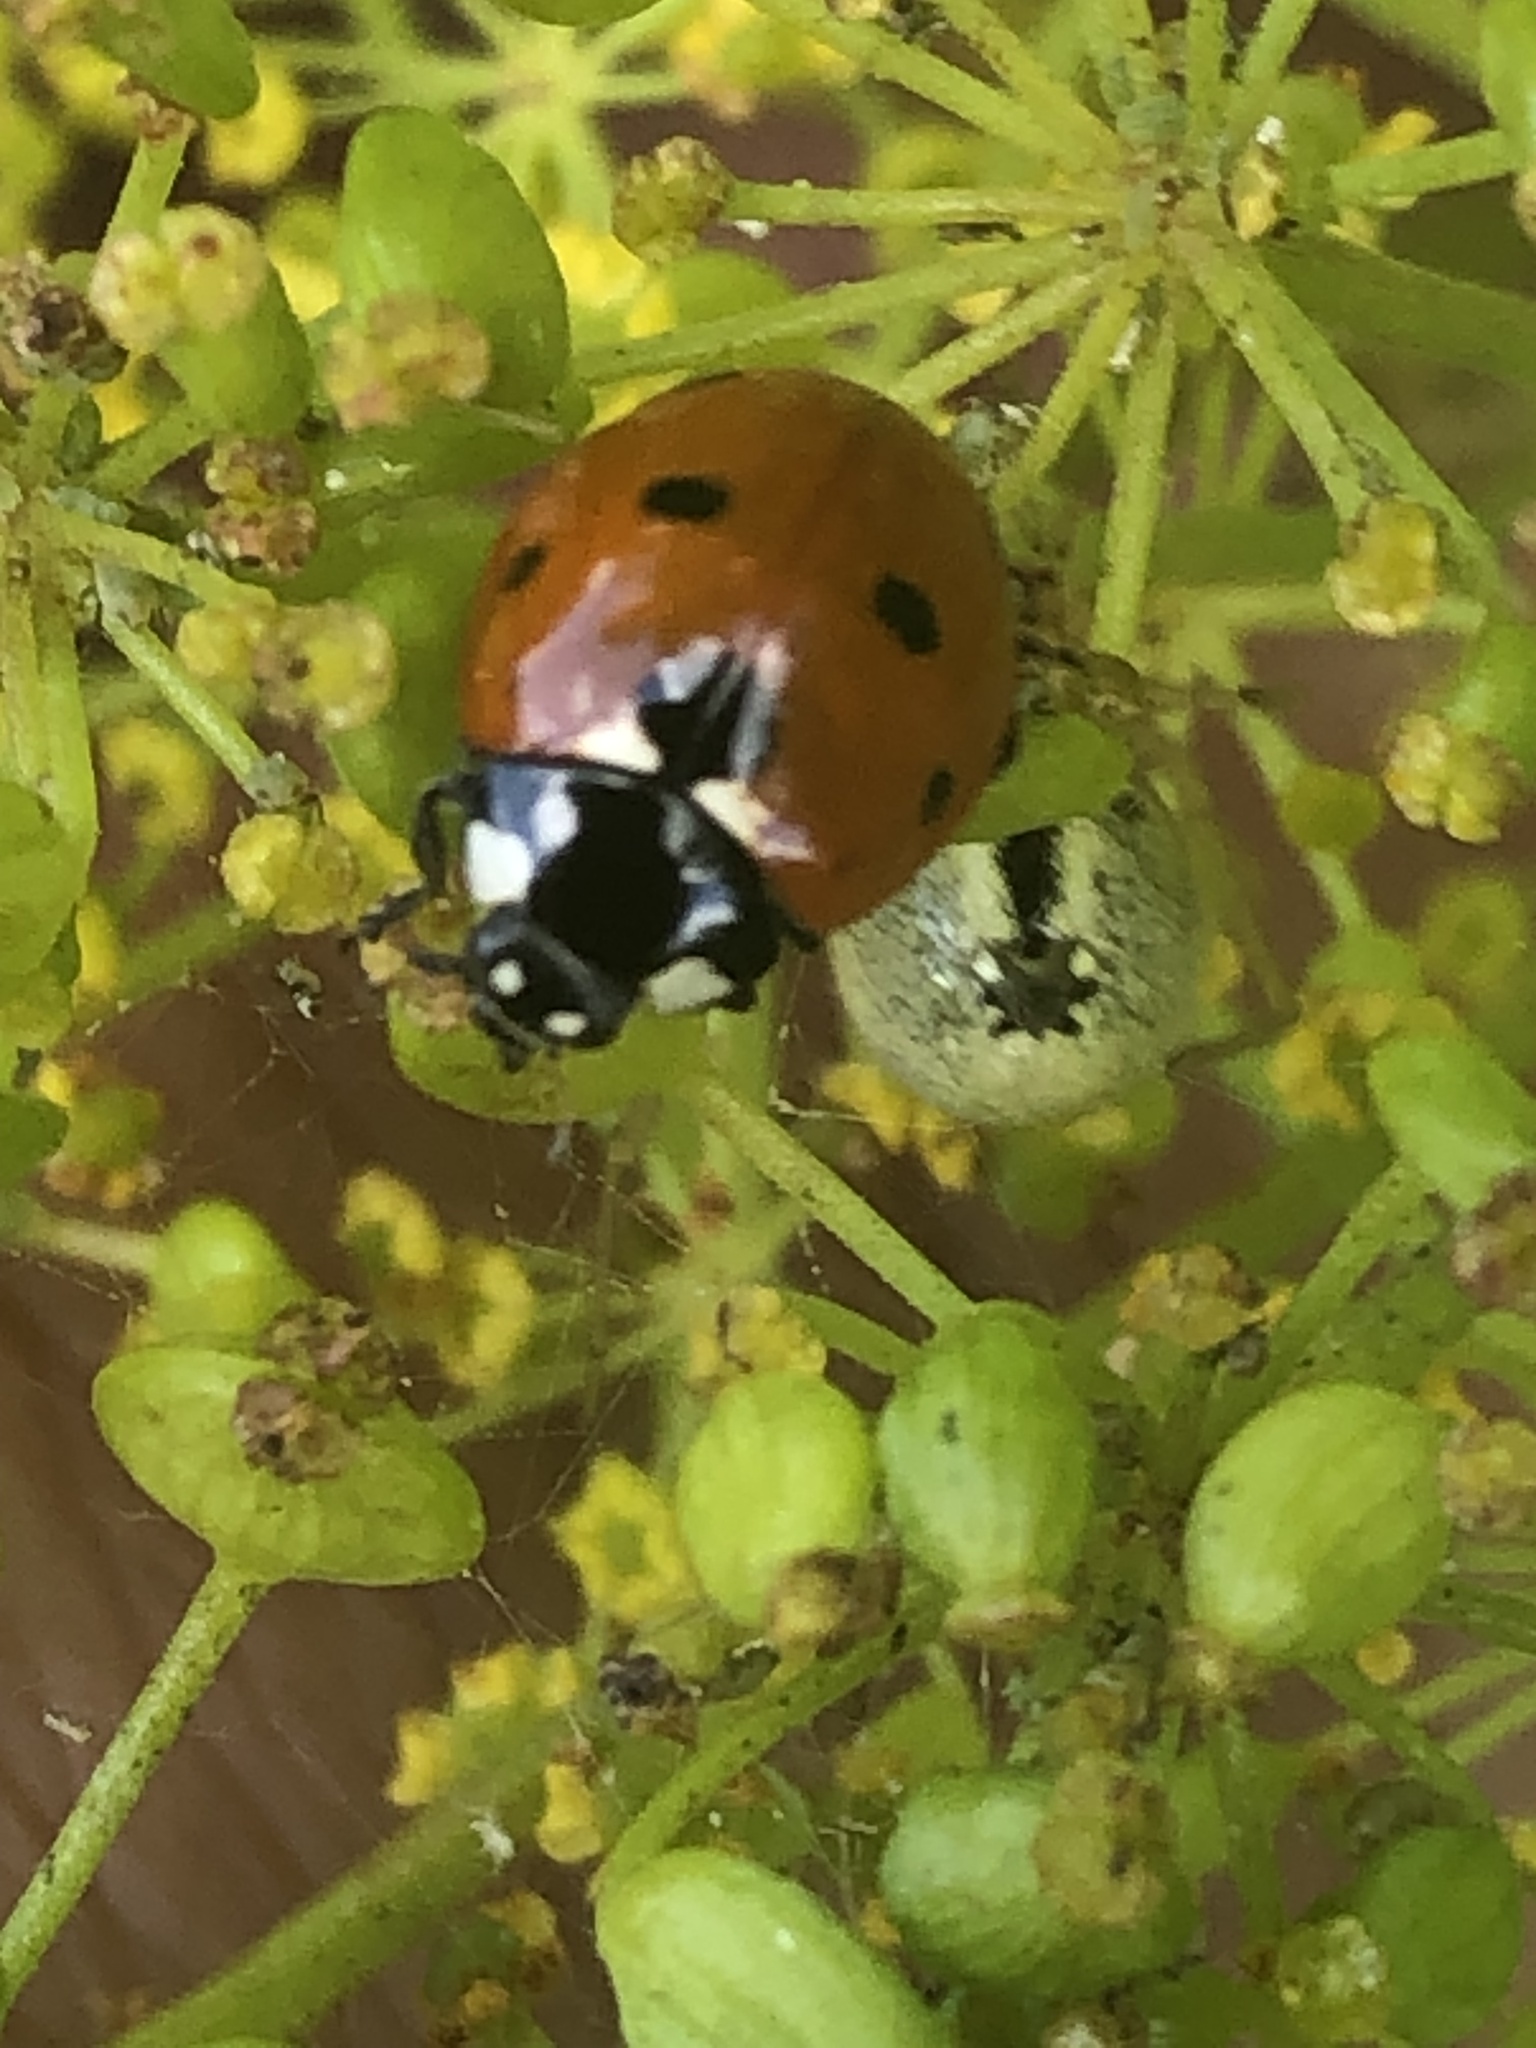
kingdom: Animalia
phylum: Arthropoda
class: Insecta
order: Coleoptera
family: Coccinellidae
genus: Coccinella
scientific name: Coccinella septempunctata
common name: Sevenspotted lady beetle
